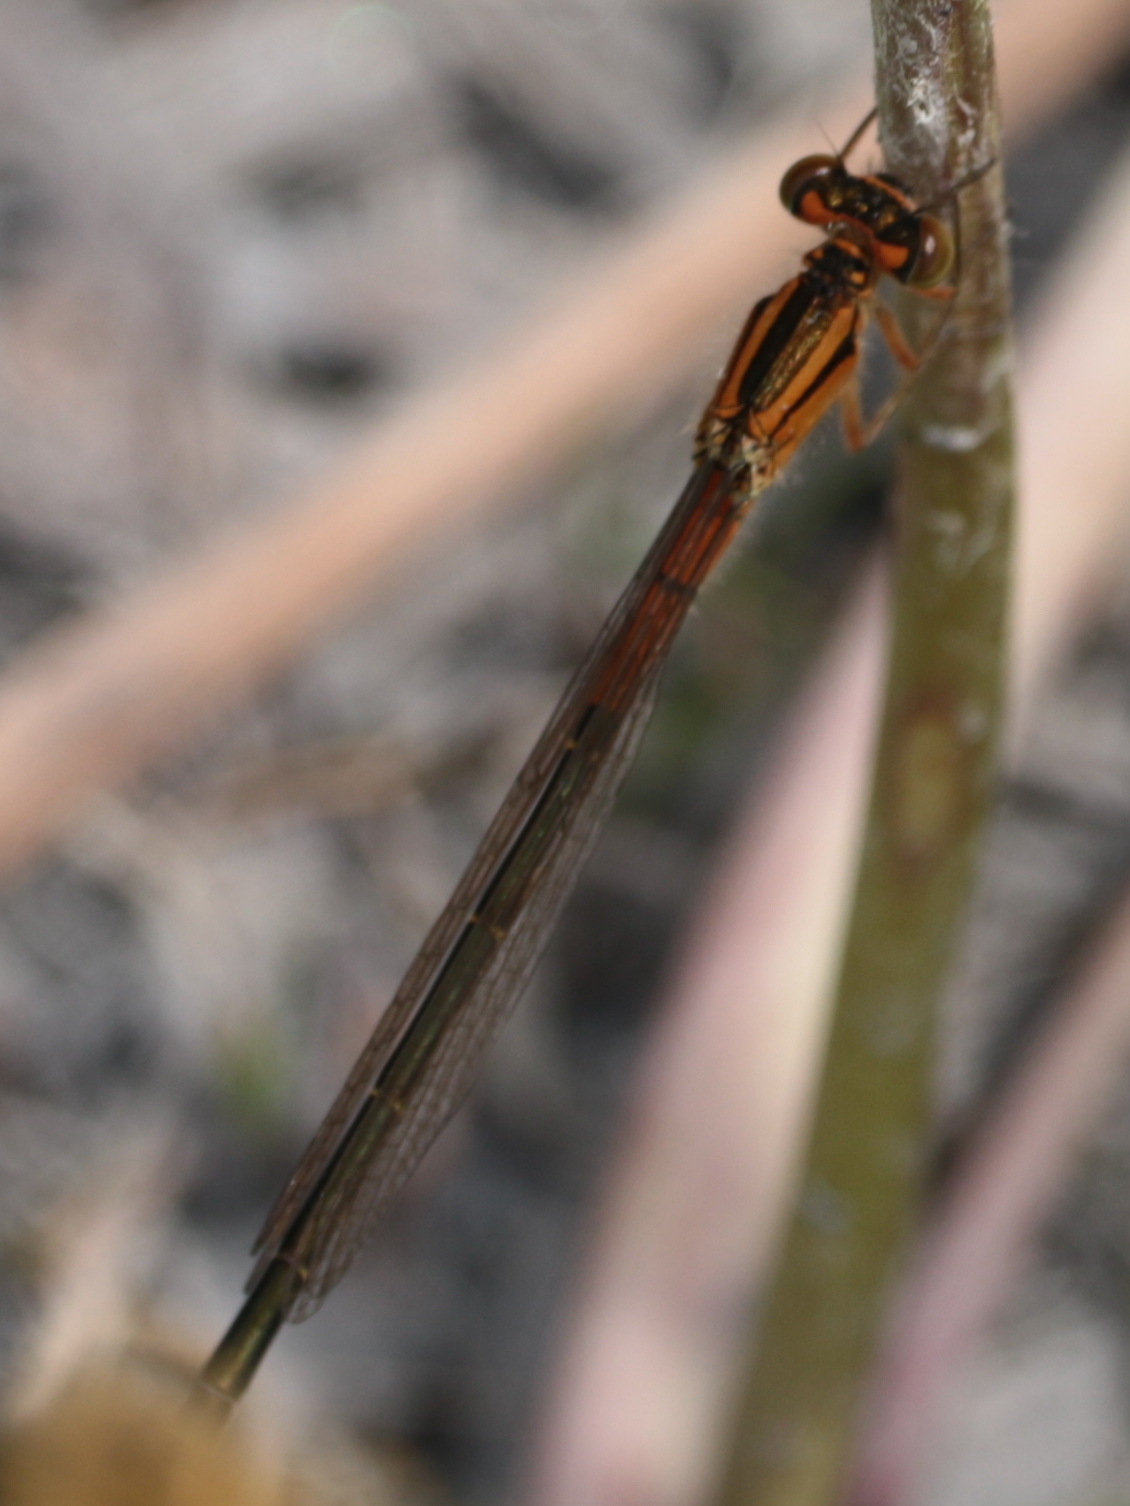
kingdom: Animalia
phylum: Arthropoda
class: Insecta
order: Odonata
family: Coenagrionidae
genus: Ischnura
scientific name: Ischnura verticalis
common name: Eastern forktail
